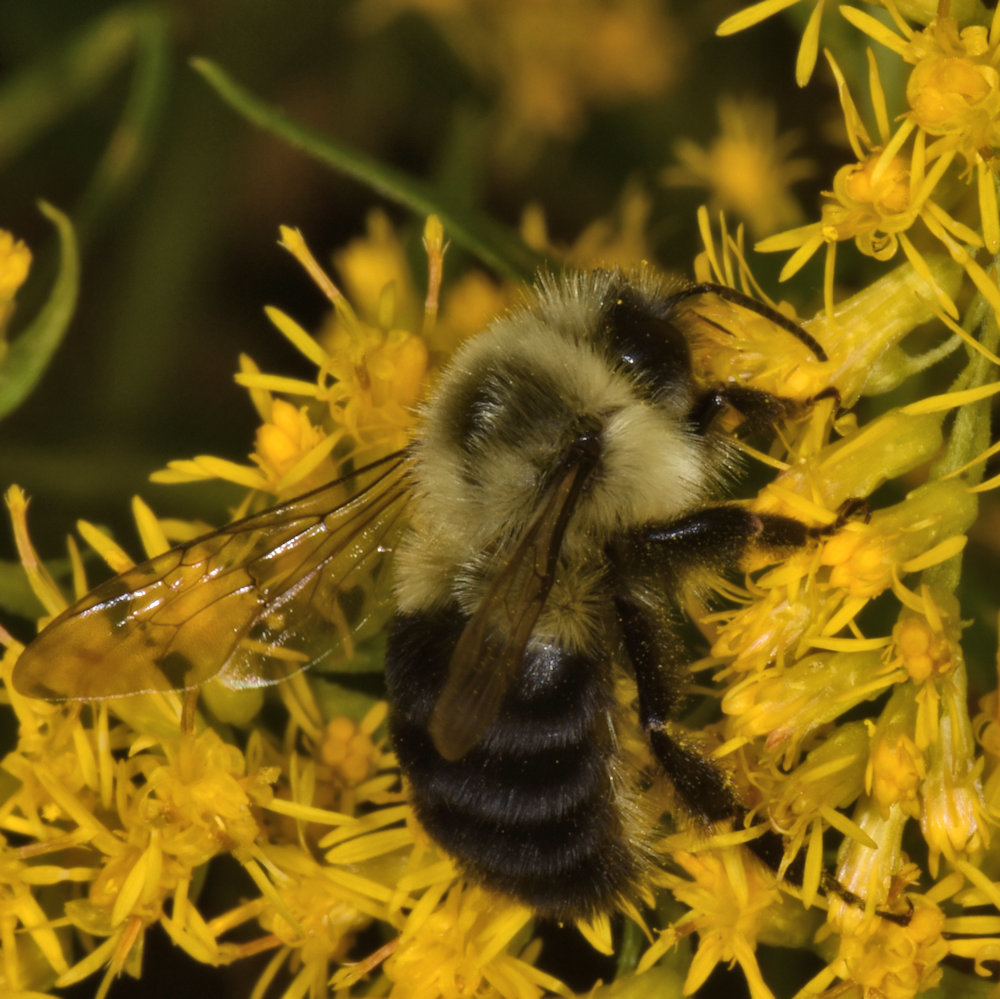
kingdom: Animalia
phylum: Arthropoda
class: Insecta
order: Hymenoptera
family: Apidae
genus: Bombus
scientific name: Bombus impatiens
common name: Common eastern bumble bee
